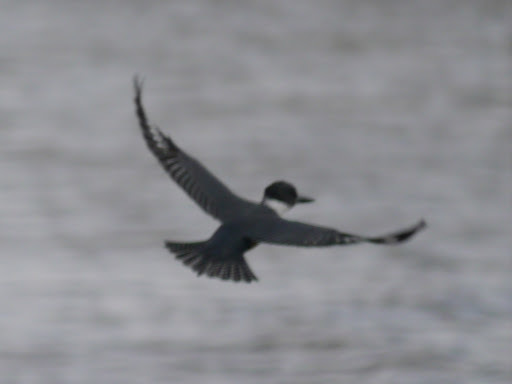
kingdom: Animalia
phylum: Chordata
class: Aves
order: Coraciiformes
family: Alcedinidae
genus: Megaceryle
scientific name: Megaceryle alcyon
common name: Belted kingfisher
